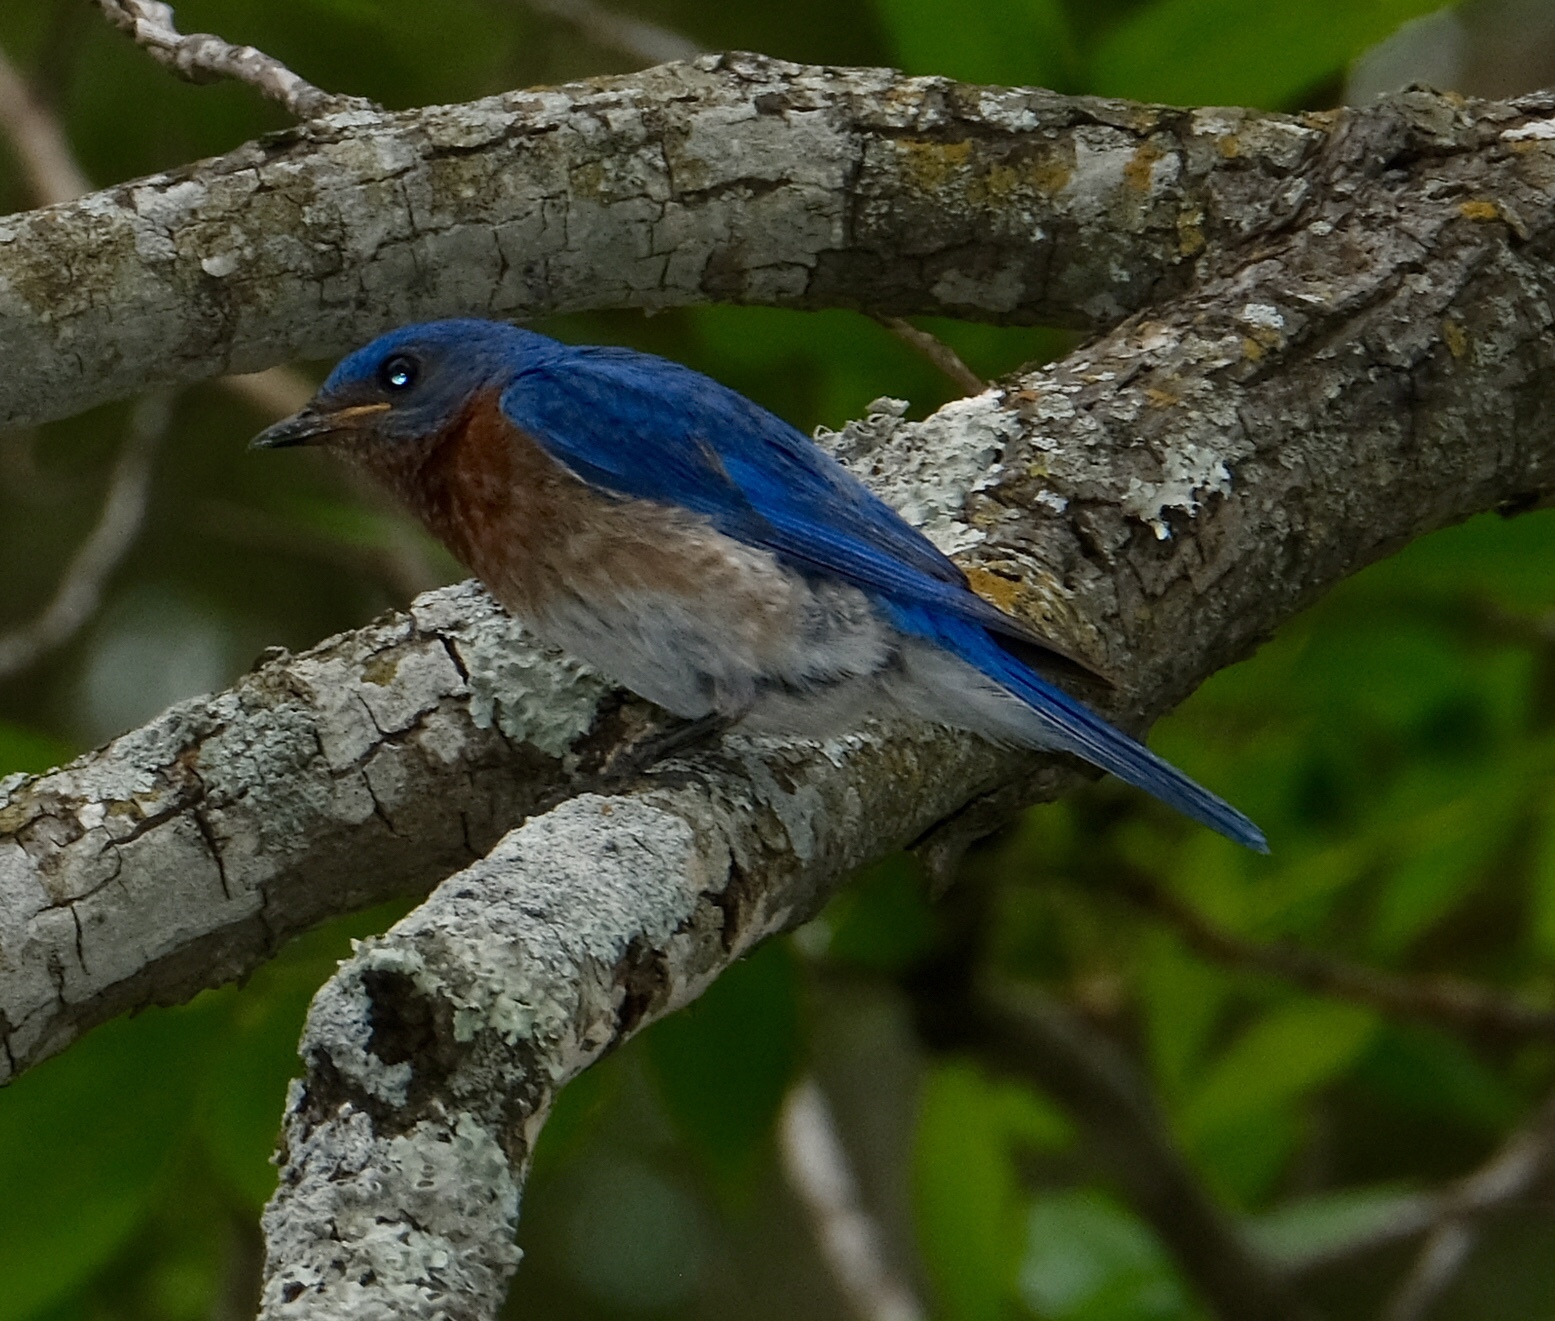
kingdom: Animalia
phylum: Chordata
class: Aves
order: Passeriformes
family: Turdidae
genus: Sialia
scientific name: Sialia sialis
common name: Eastern bluebird
